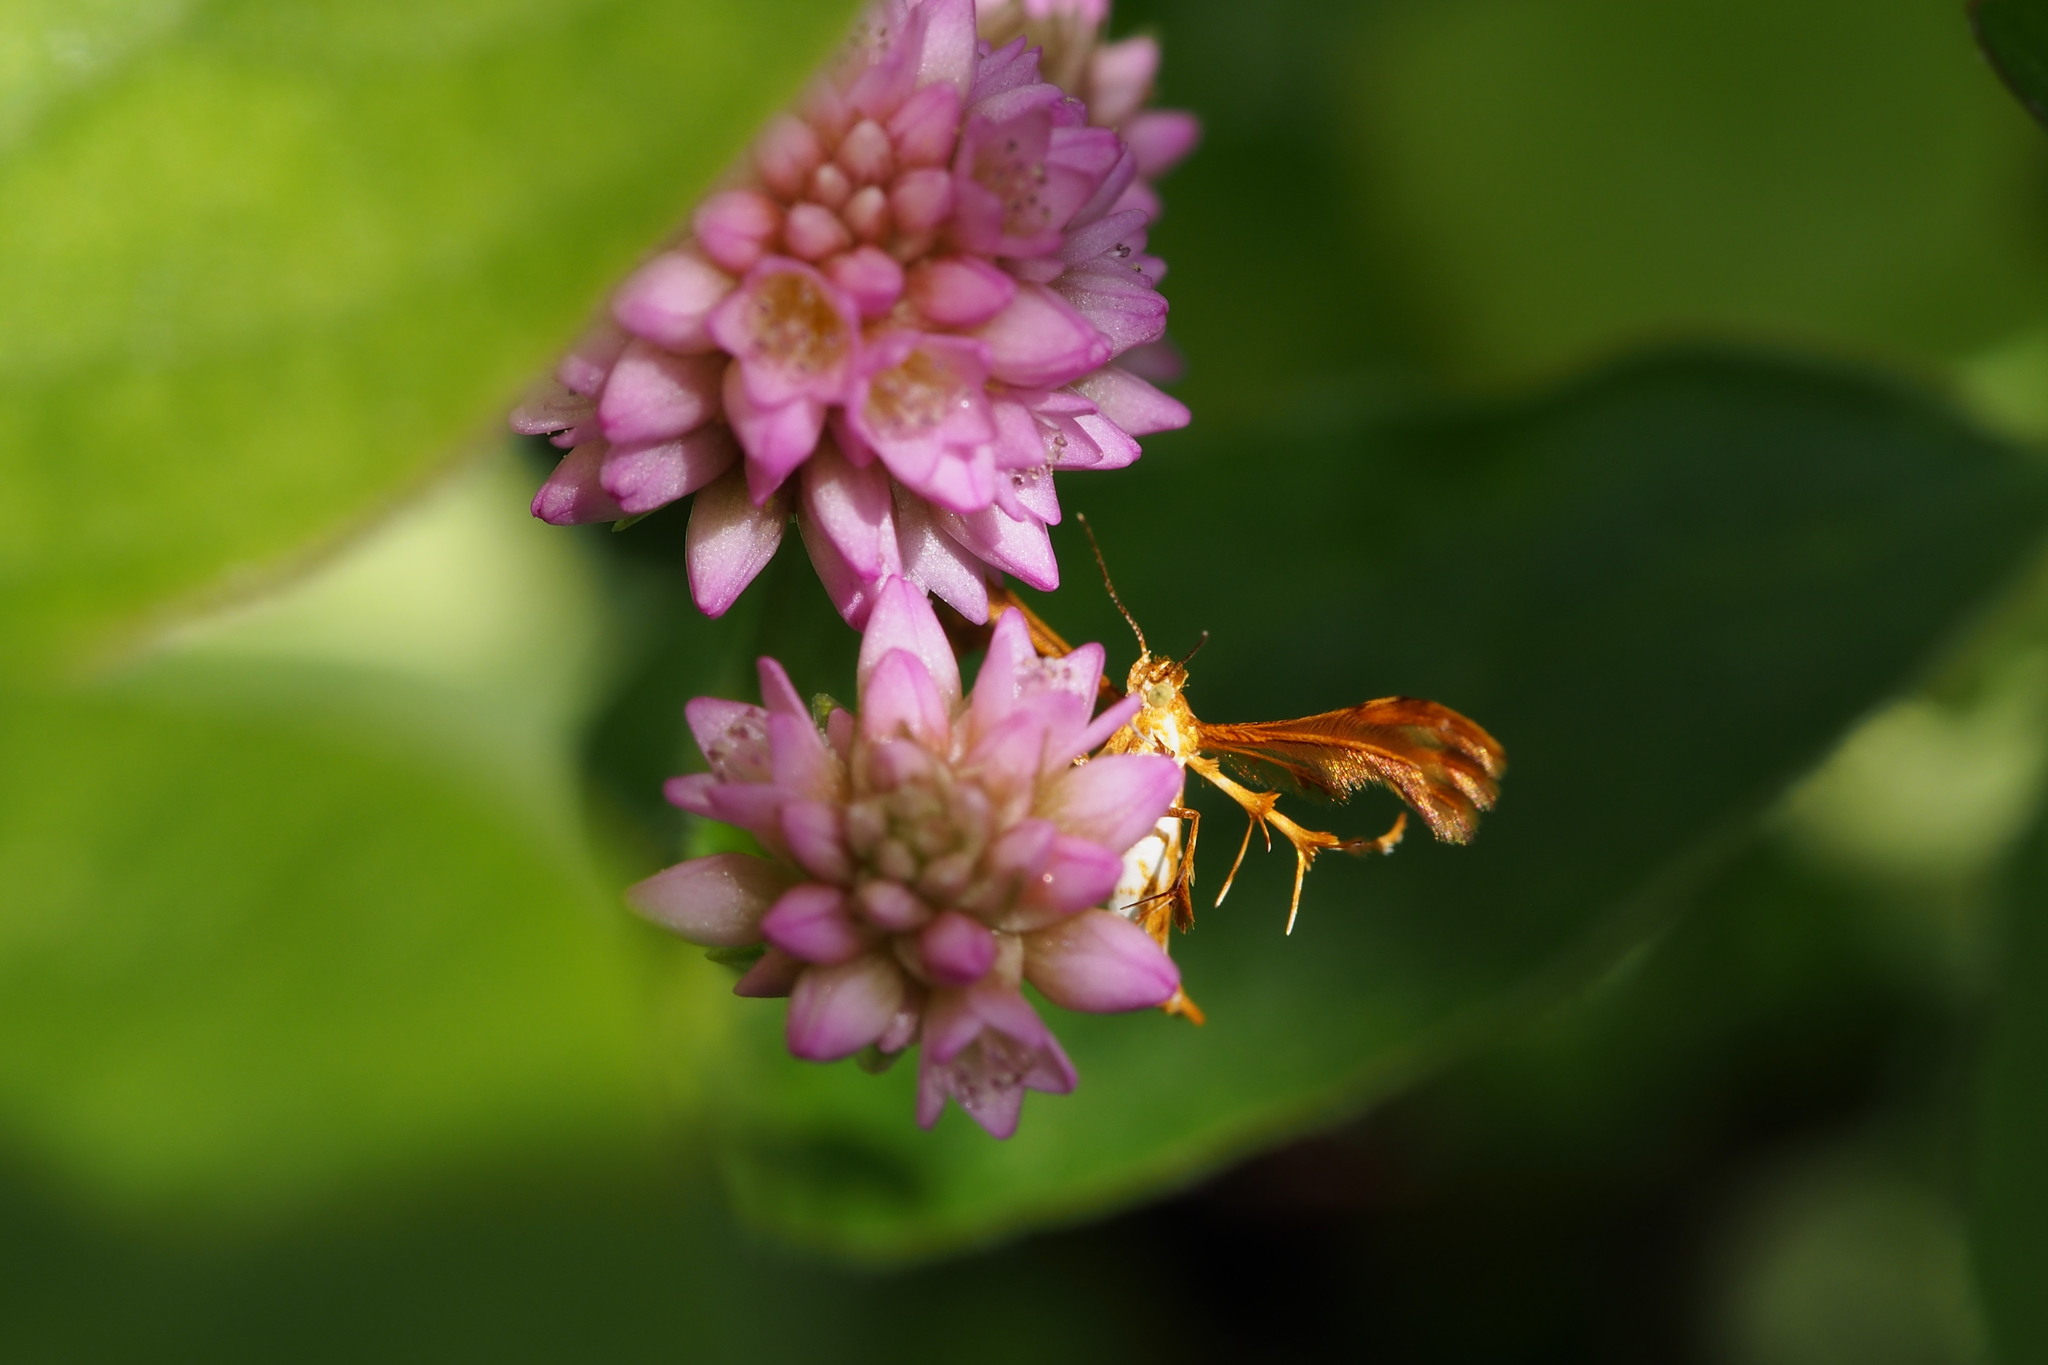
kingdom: Animalia
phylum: Arthropoda
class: Insecta
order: Lepidoptera
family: Pterophoridae
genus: Deuterocopus
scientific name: Deuterocopus albipunctatus
